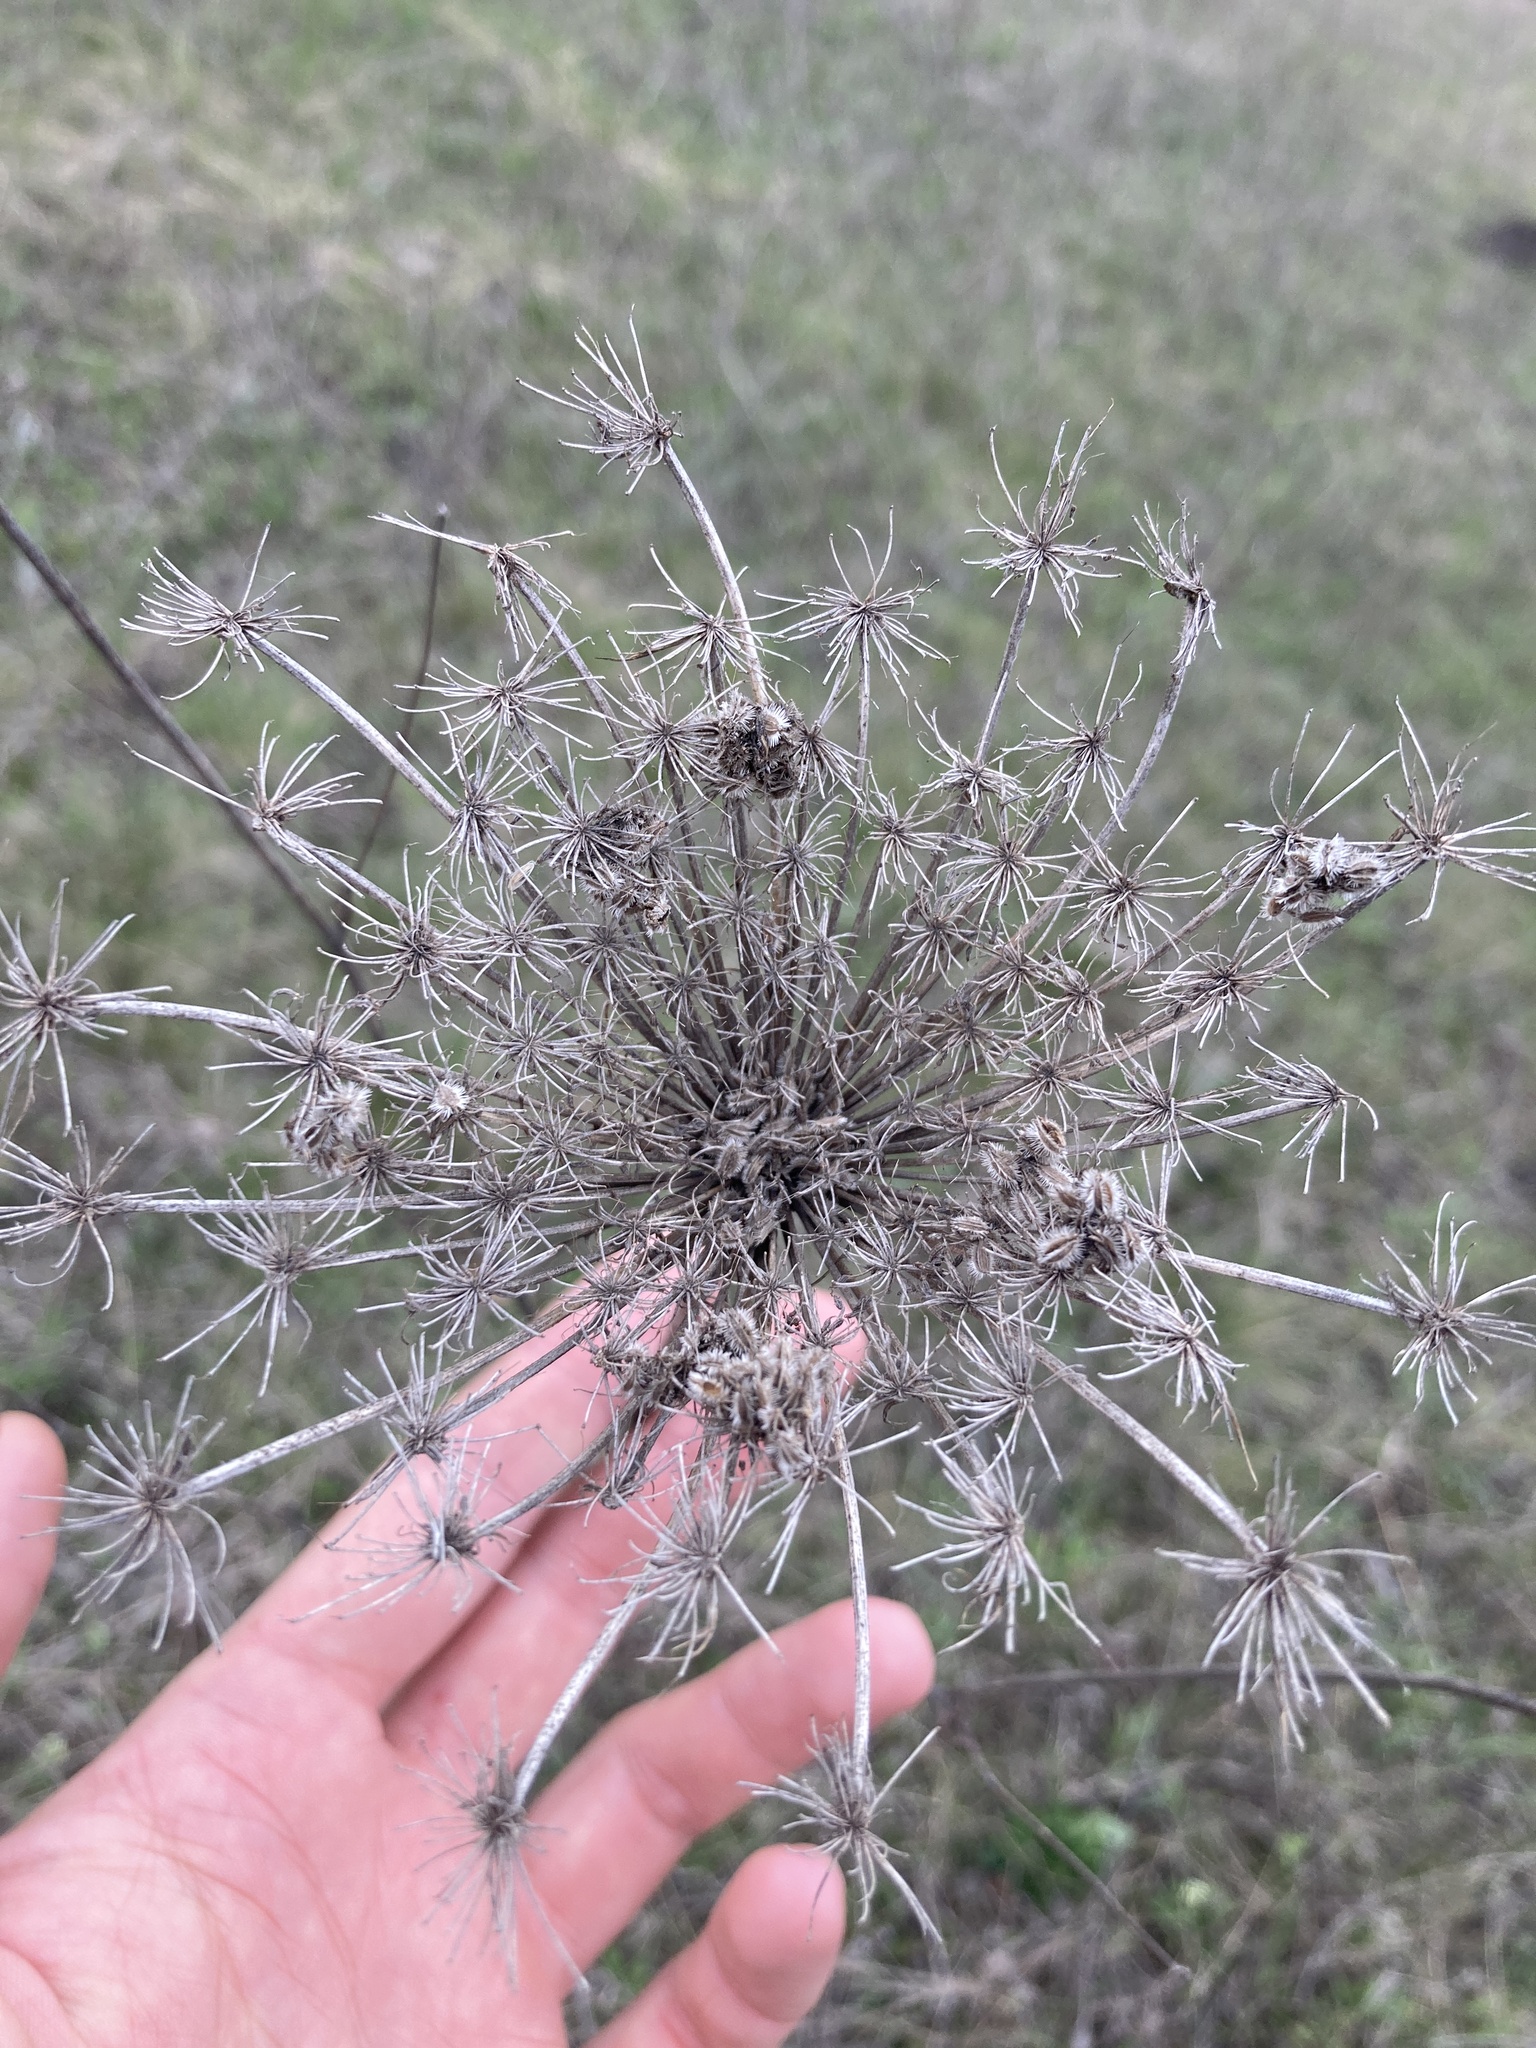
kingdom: Plantae
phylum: Tracheophyta
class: Magnoliopsida
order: Apiales
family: Apiaceae
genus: Daucus
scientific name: Daucus carota
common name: Wild carrot
